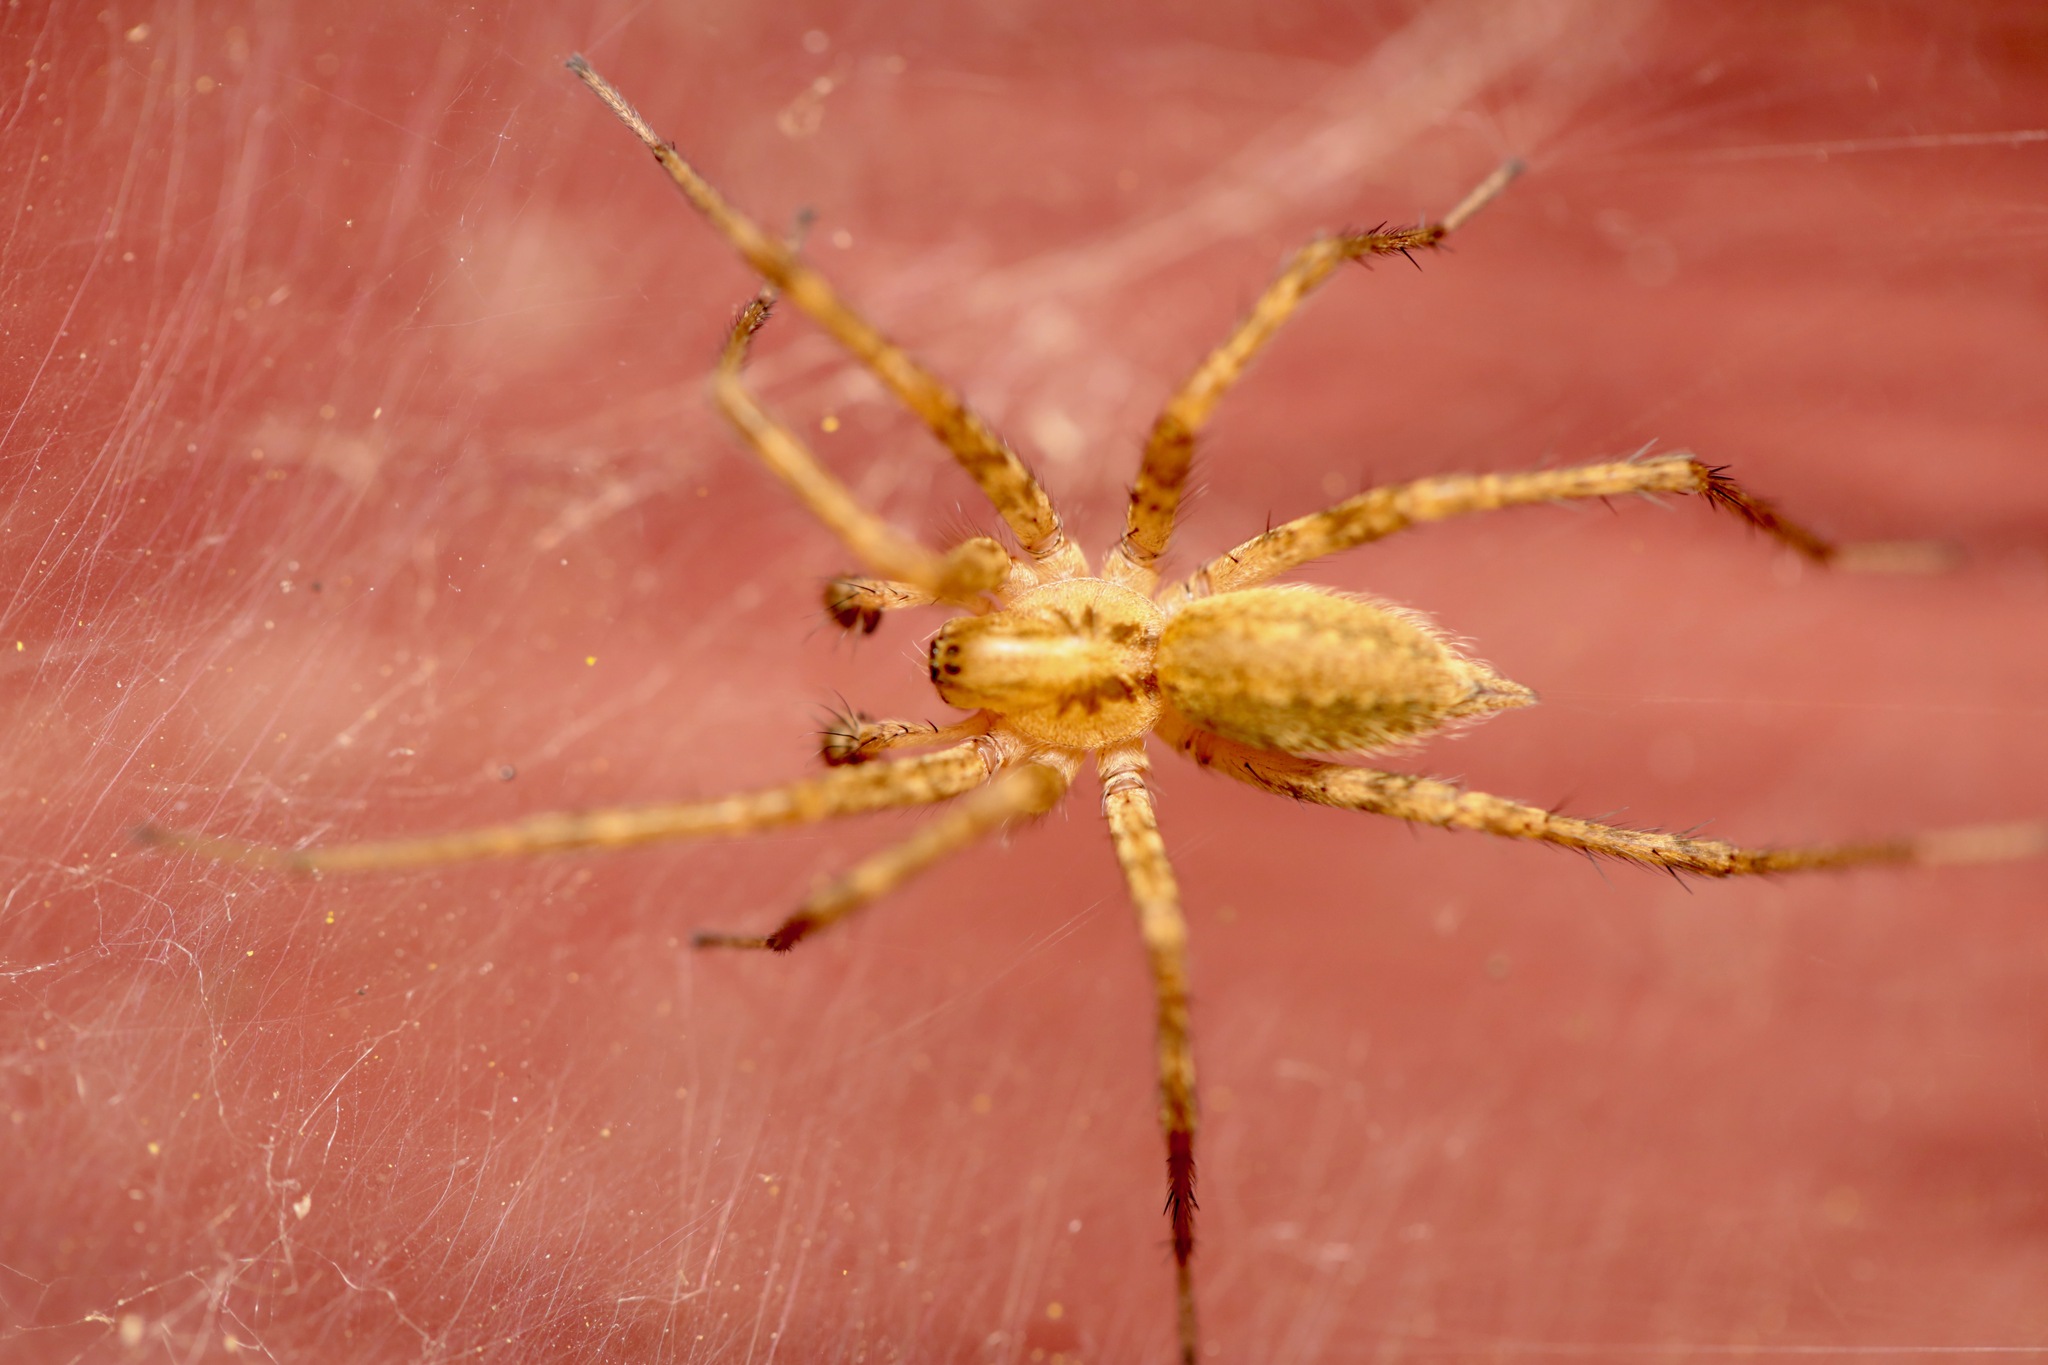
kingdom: Animalia
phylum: Arthropoda
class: Arachnida
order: Araneae
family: Agelenidae
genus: Agelenopsis
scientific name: Agelenopsis
